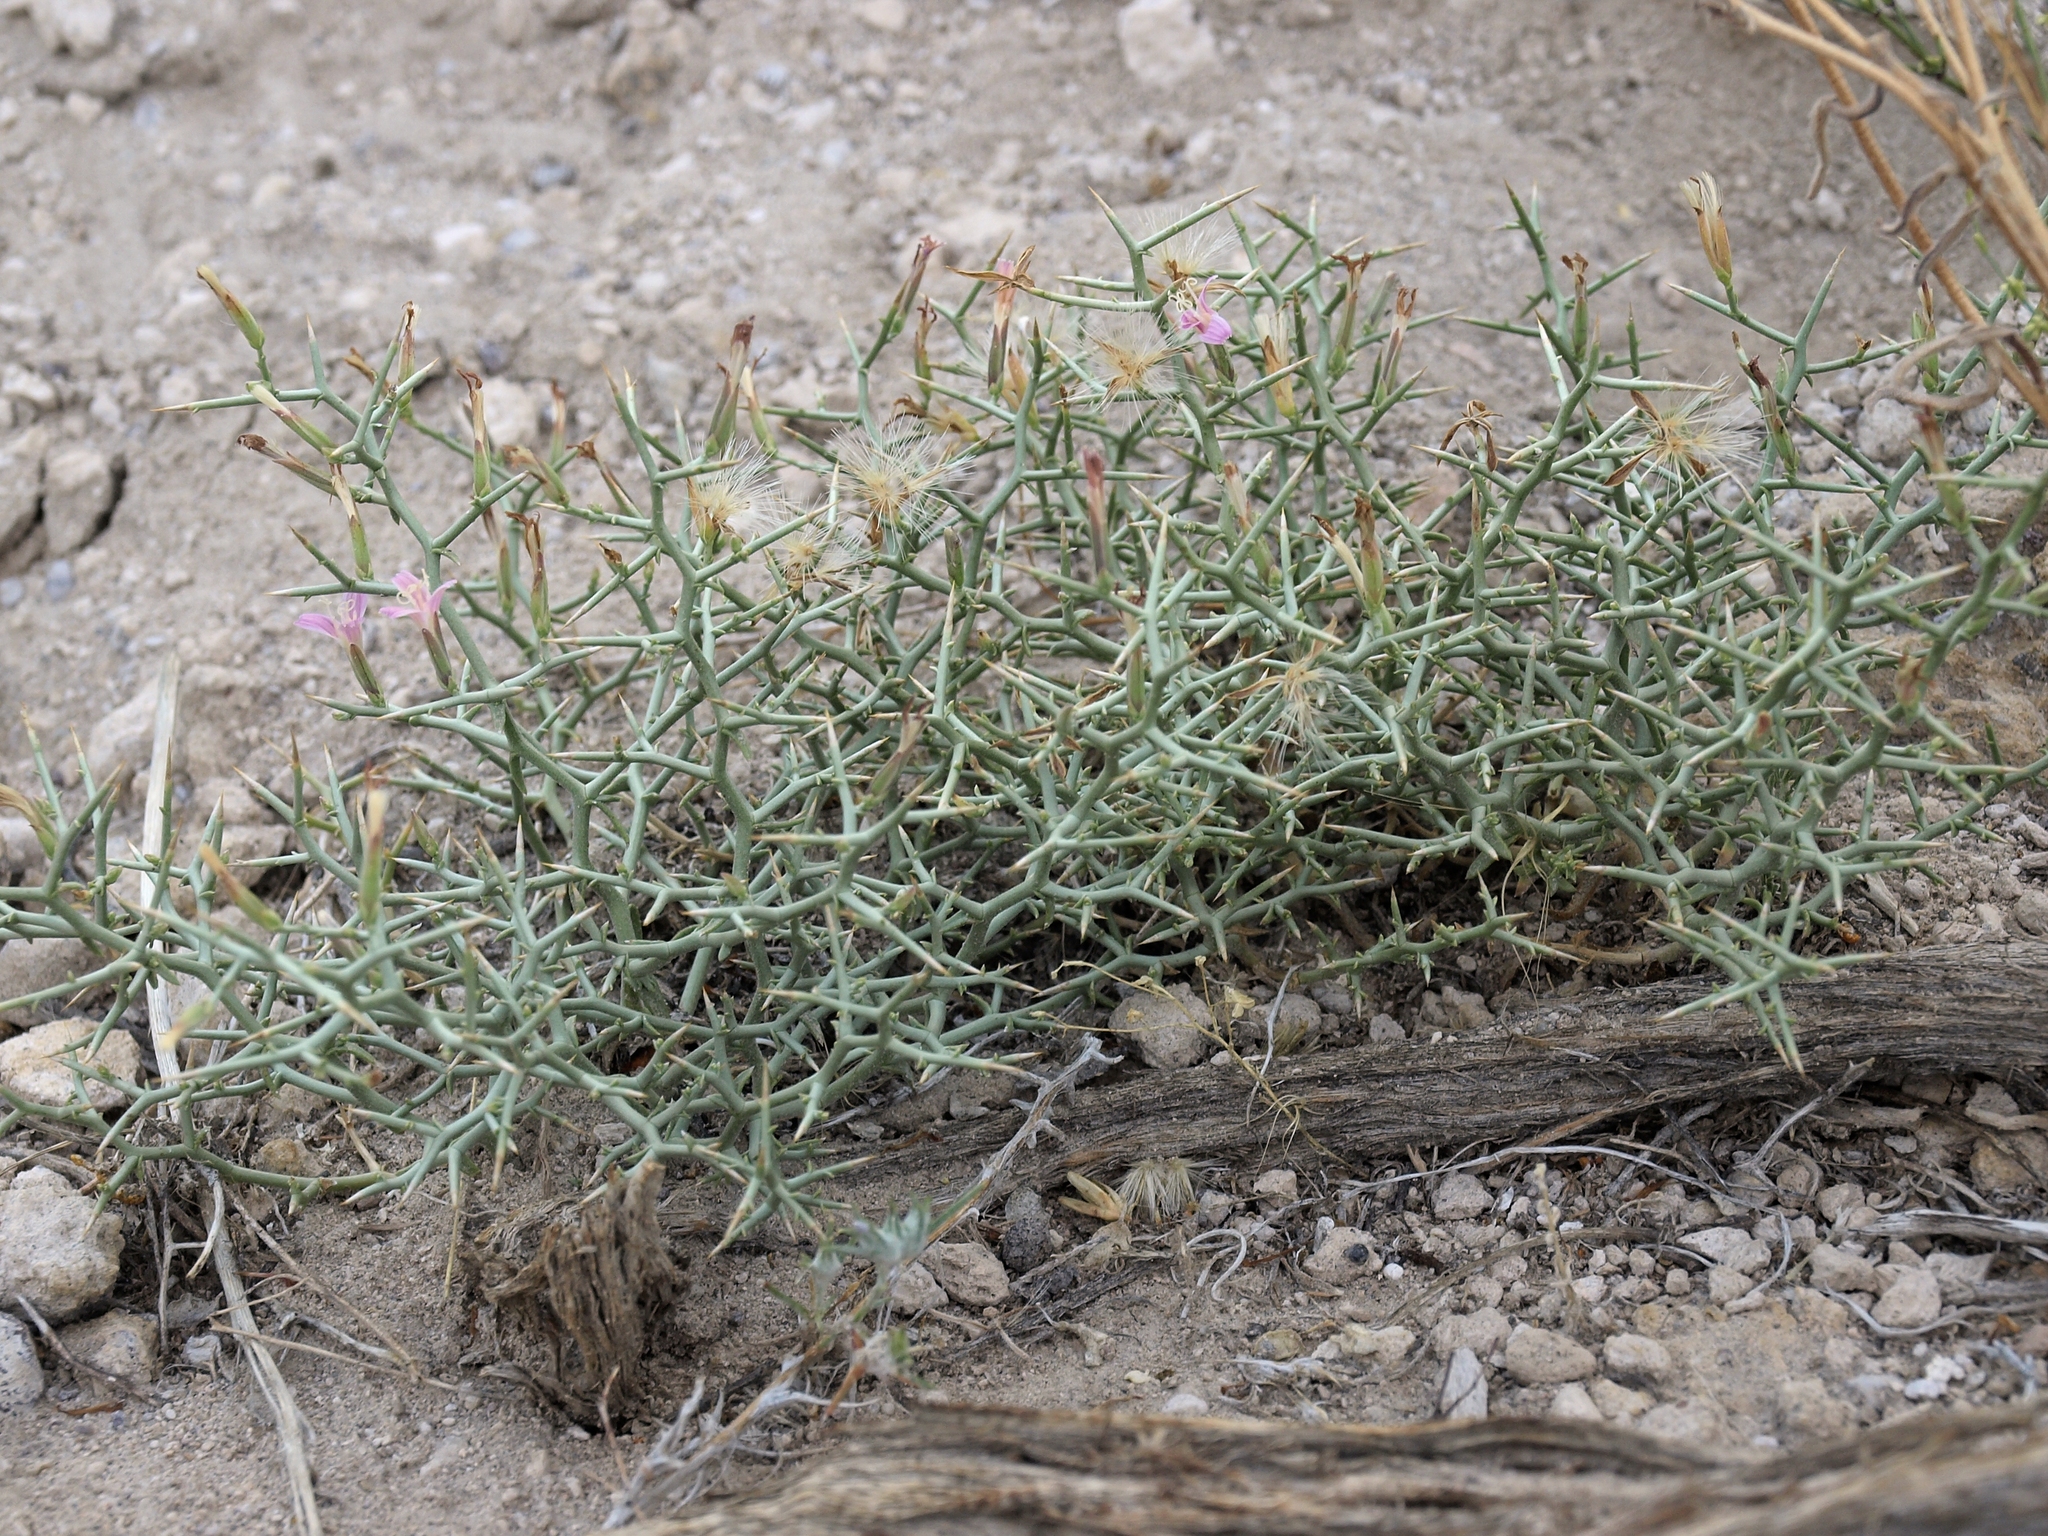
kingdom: Plantae
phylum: Tracheophyta
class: Magnoliopsida
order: Asterales
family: Asteraceae
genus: Pleiacanthus
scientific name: Pleiacanthus spinosus
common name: Thorny skeleton-weed
